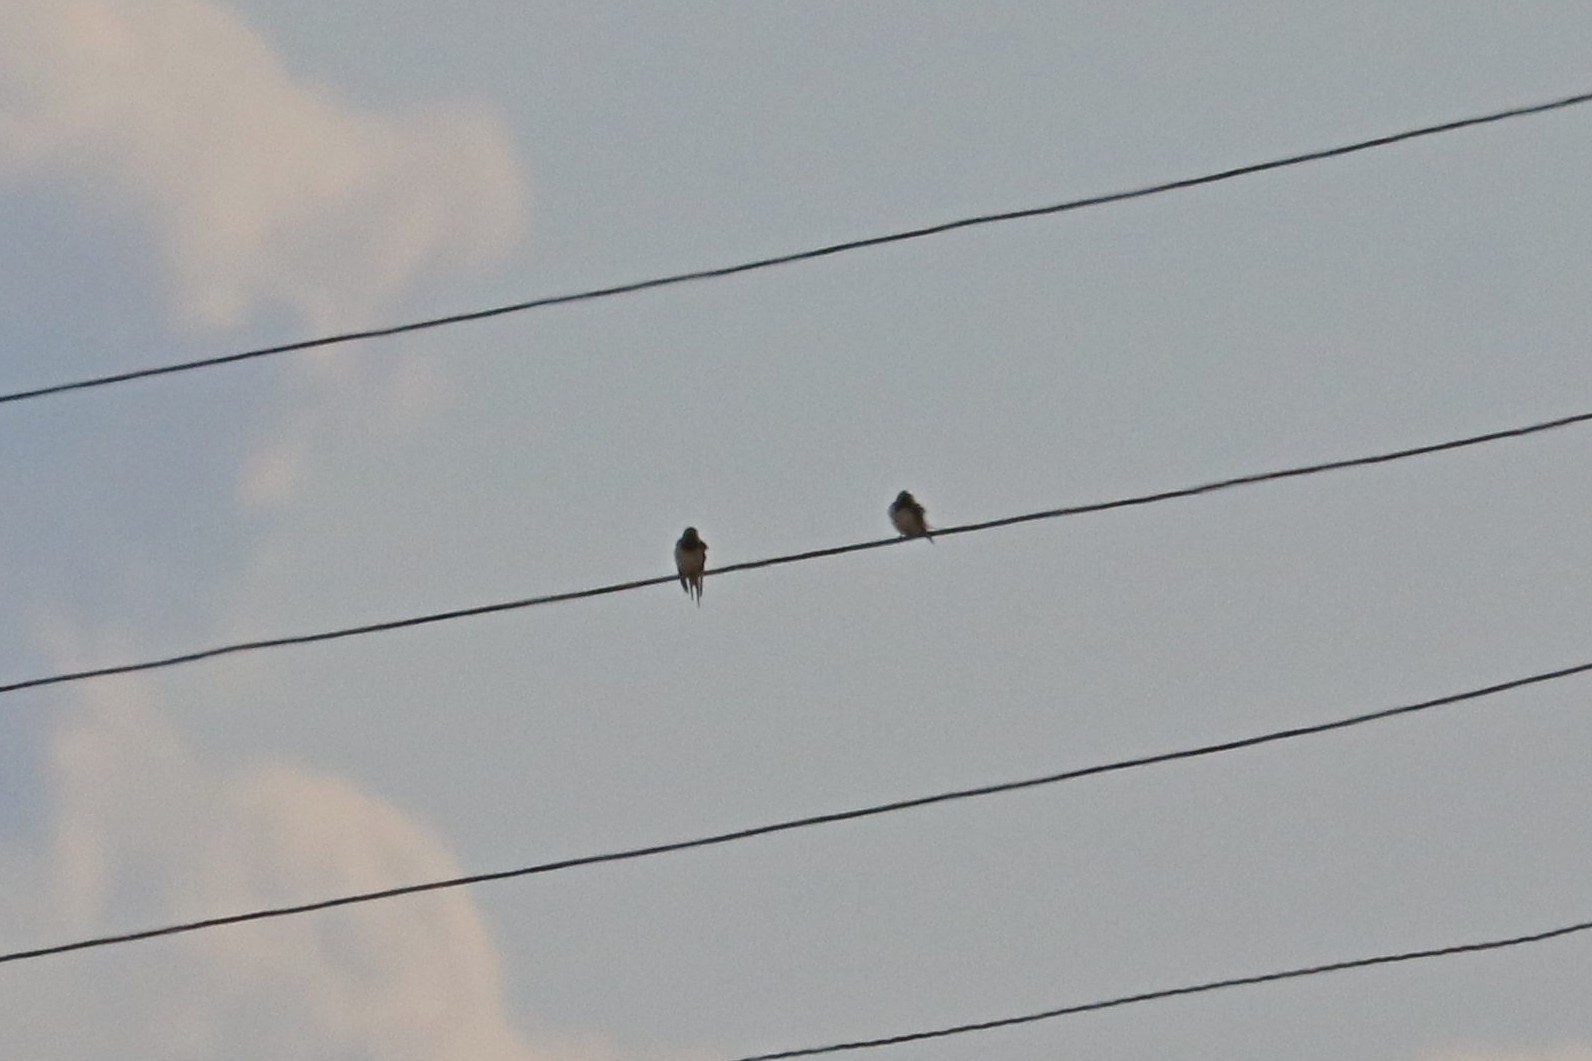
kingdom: Animalia
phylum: Chordata
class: Aves
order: Passeriformes
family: Hirundinidae
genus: Hirundo
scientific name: Hirundo rustica
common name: Barn swallow
